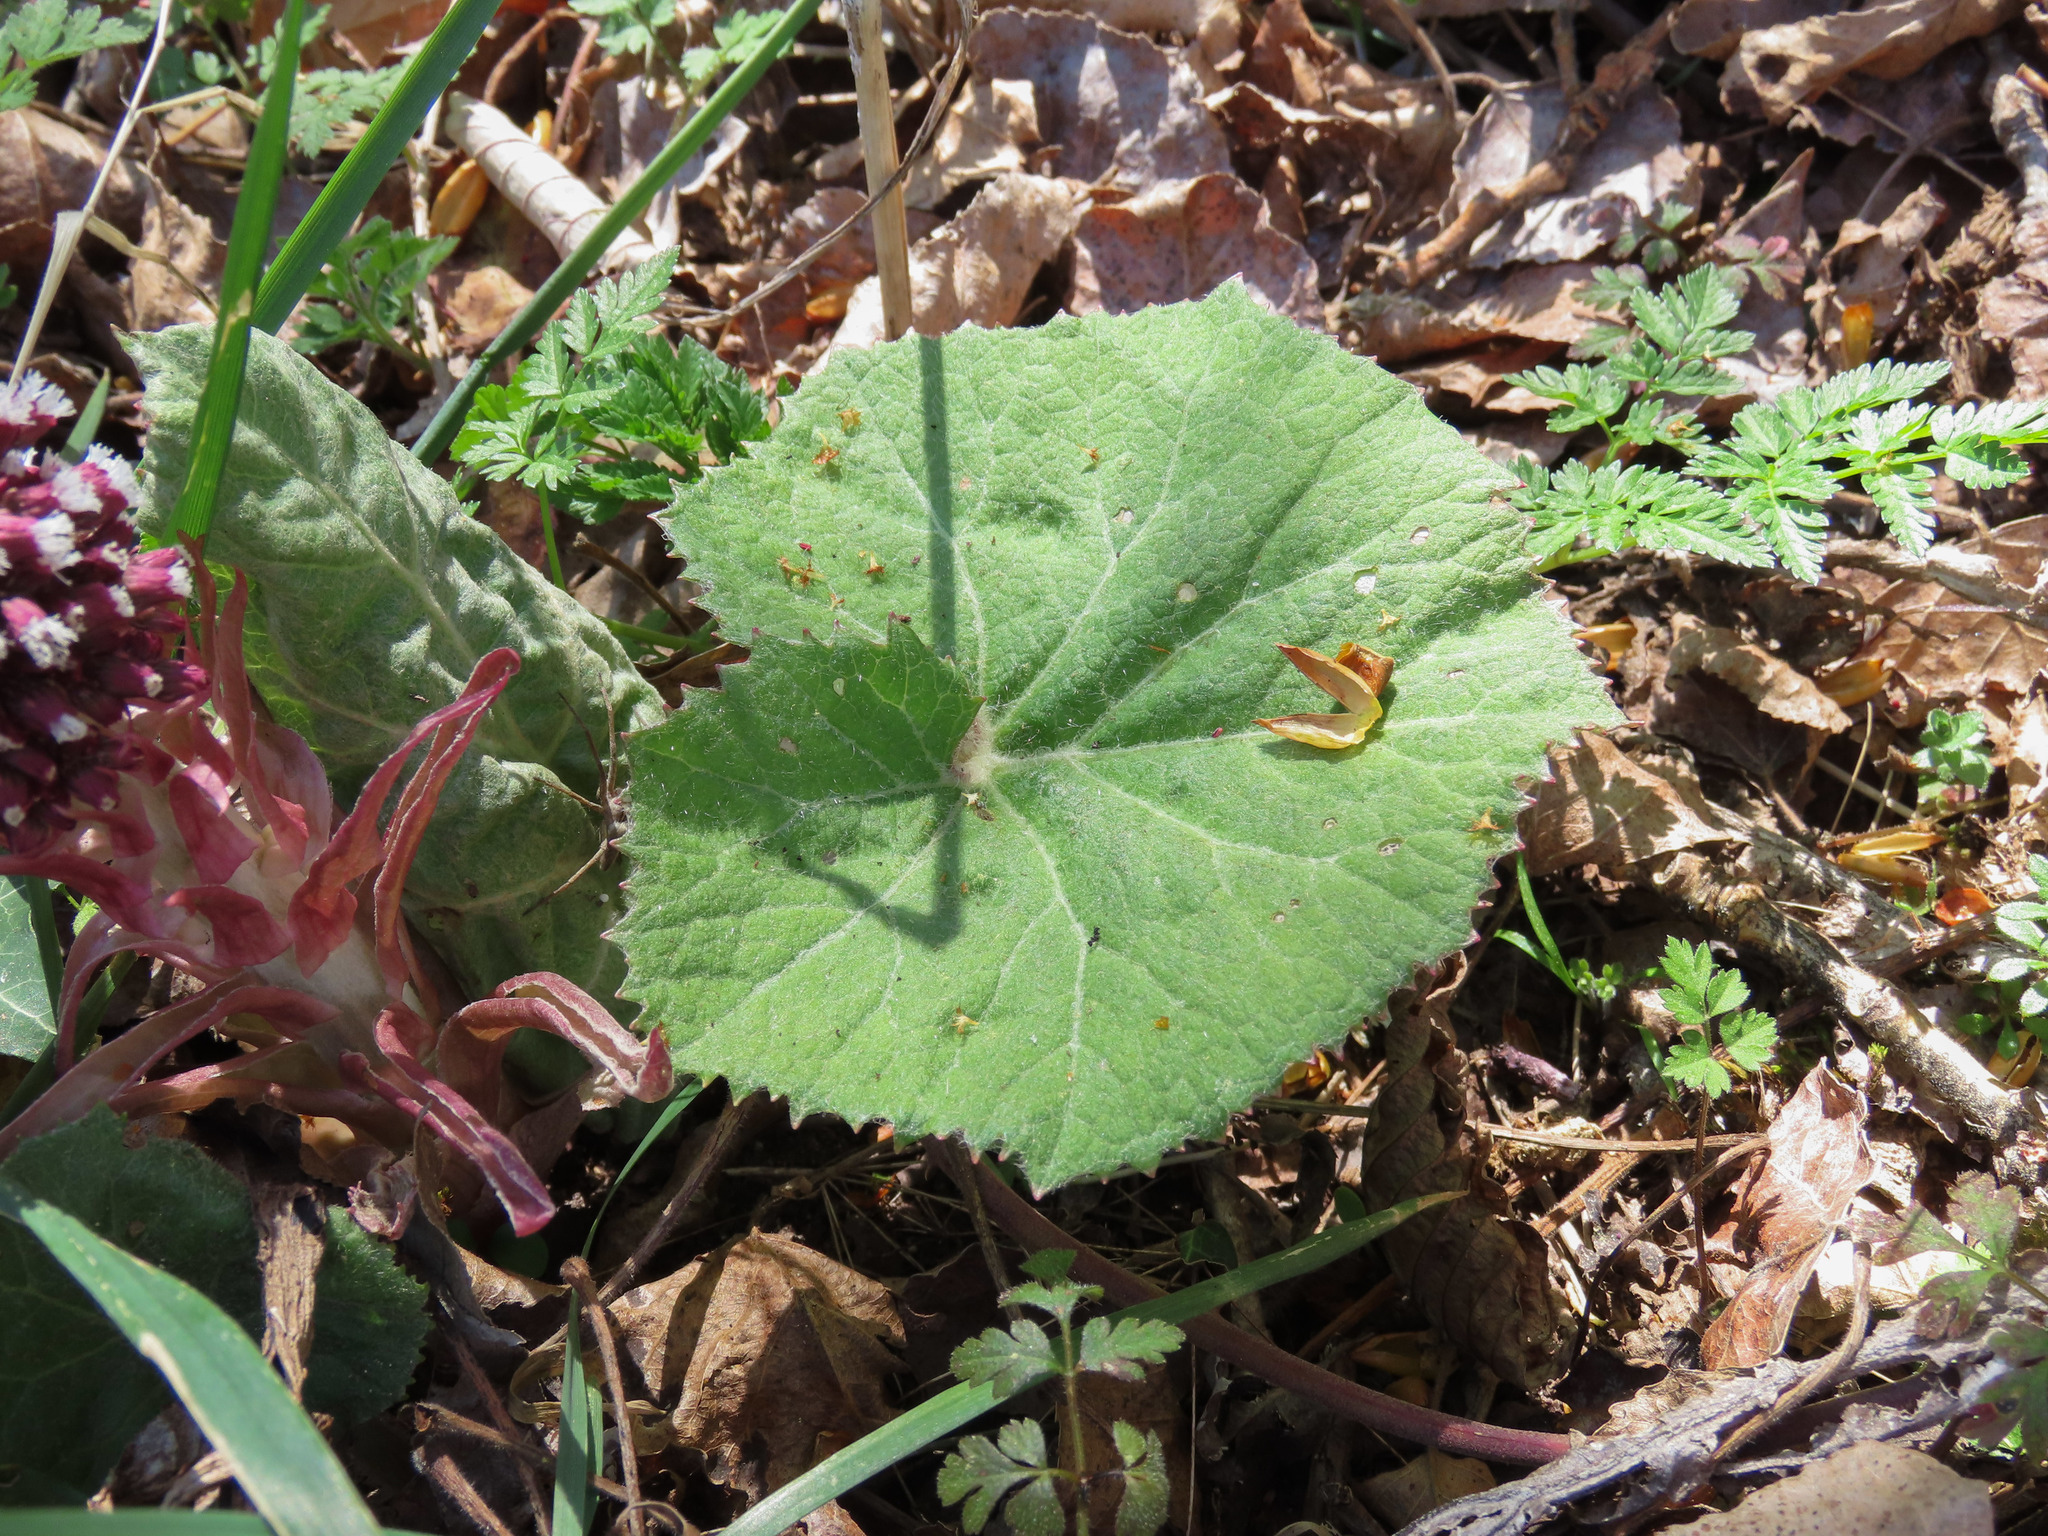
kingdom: Plantae
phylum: Tracheophyta
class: Magnoliopsida
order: Asterales
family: Asteraceae
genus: Petasites
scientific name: Petasites hybridus
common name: Butterbur
